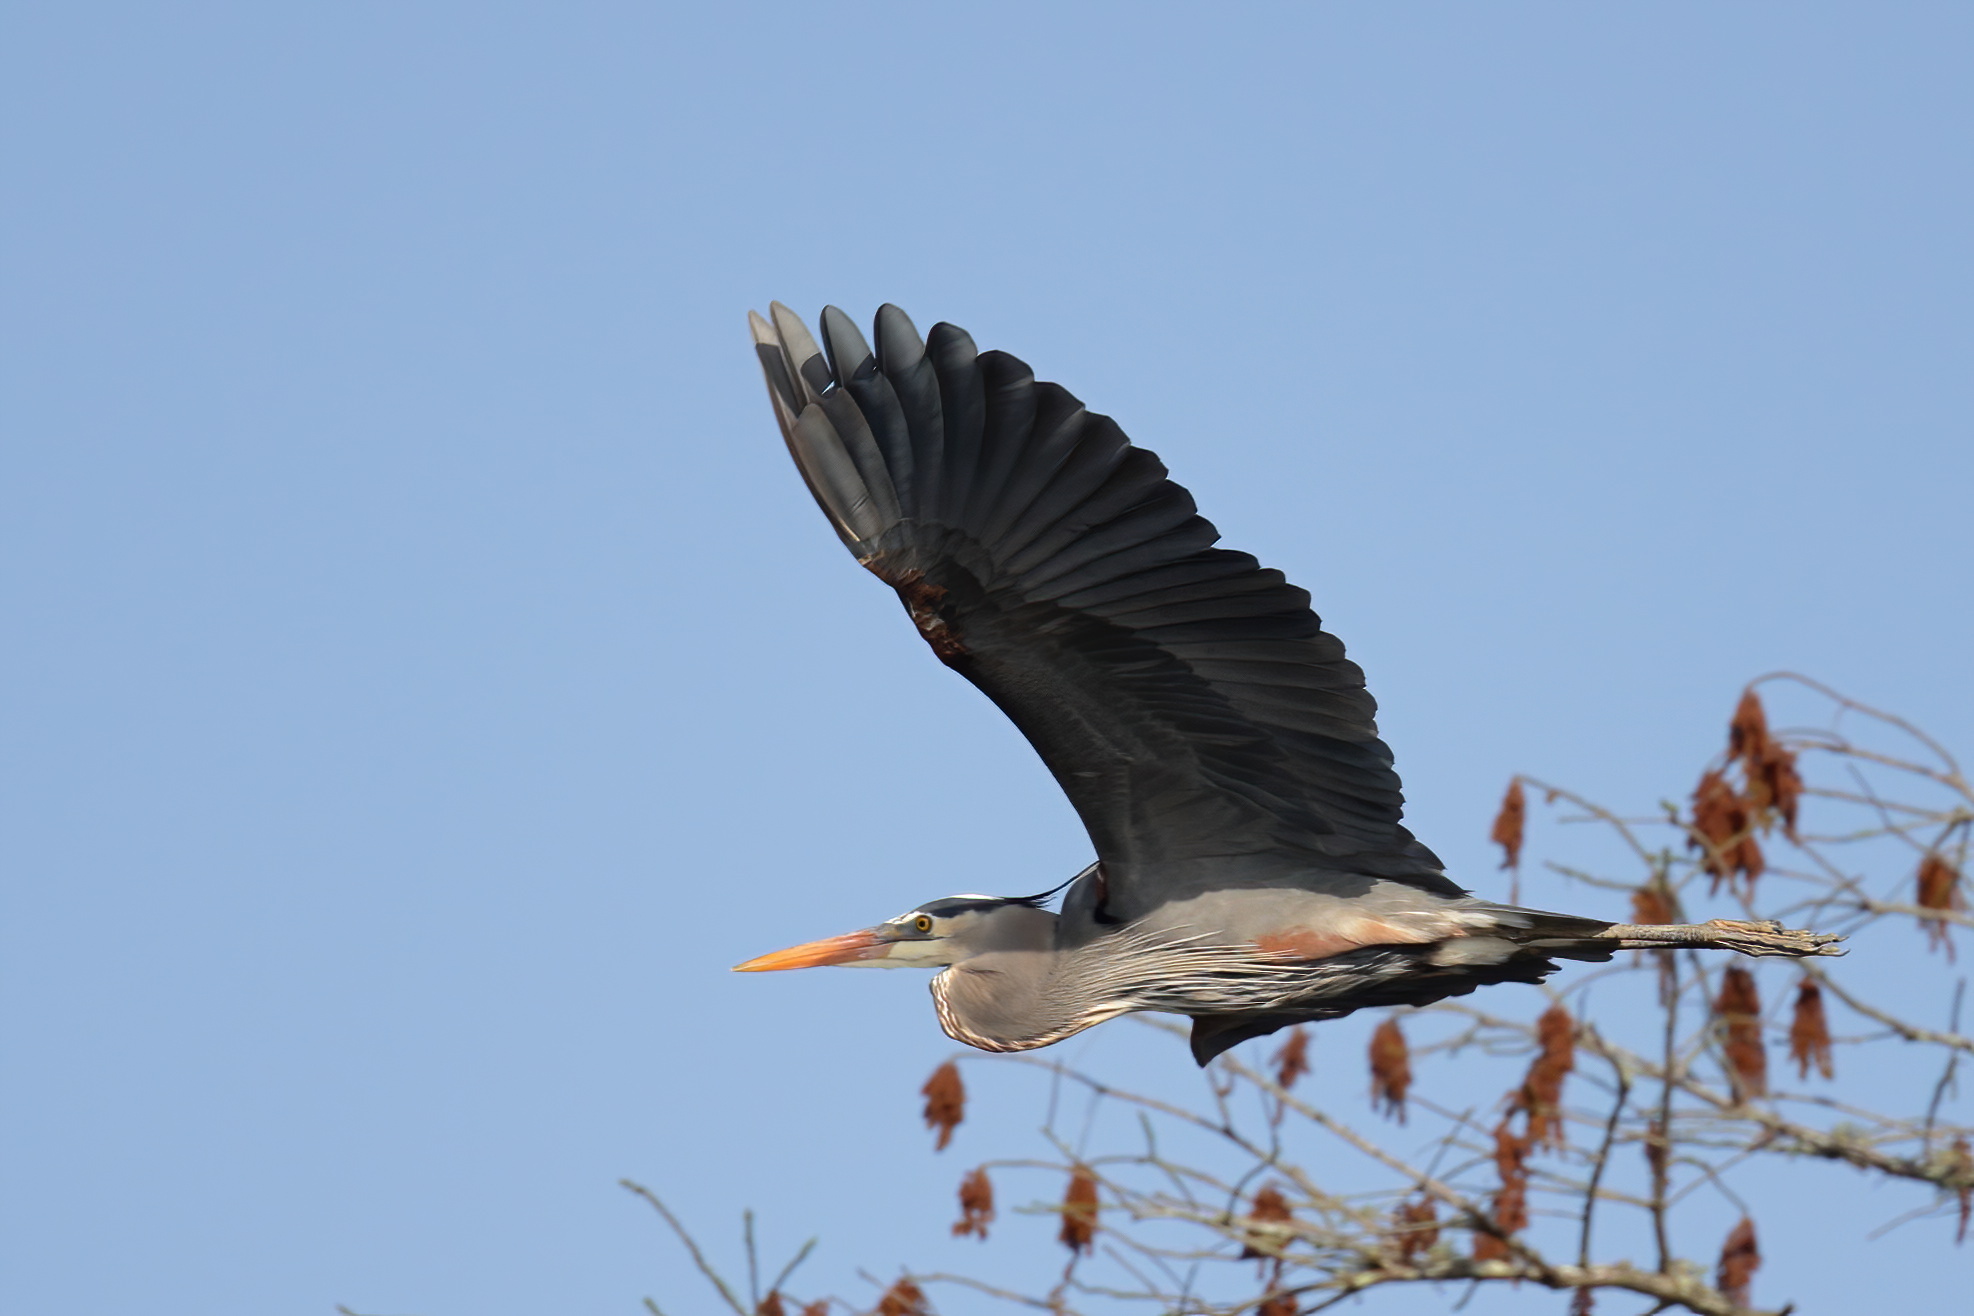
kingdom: Animalia
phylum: Chordata
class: Aves
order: Pelecaniformes
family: Ardeidae
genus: Ardea
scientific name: Ardea herodias
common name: Great blue heron
